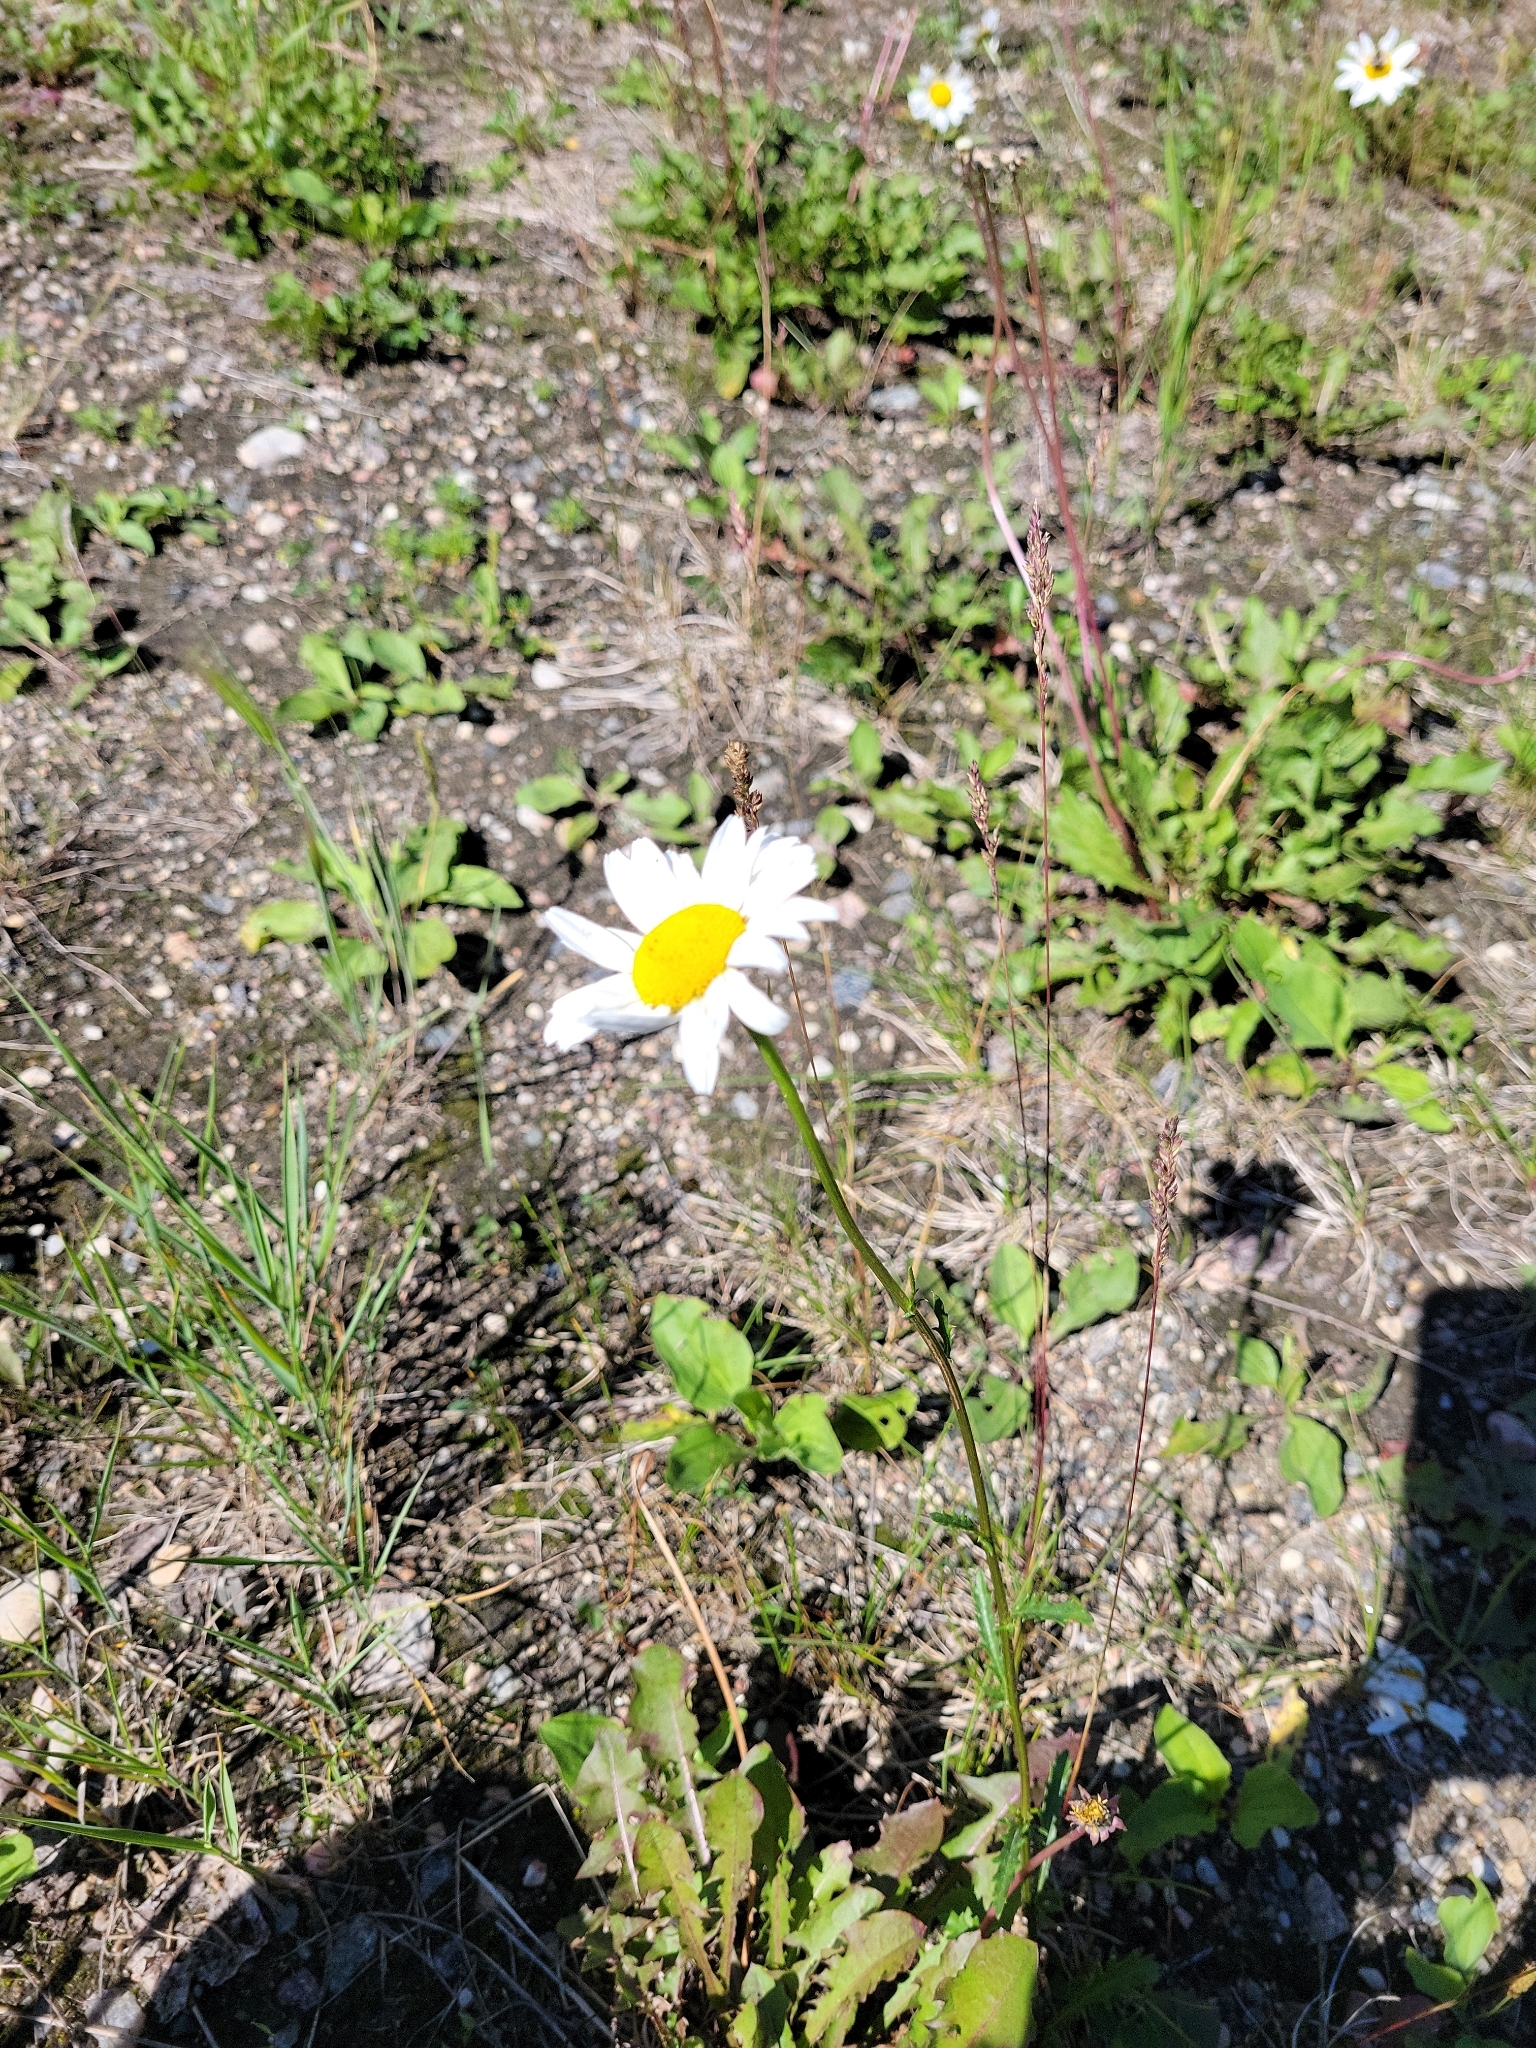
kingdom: Plantae
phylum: Tracheophyta
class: Magnoliopsida
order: Asterales
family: Asteraceae
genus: Leucanthemum
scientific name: Leucanthemum vulgare
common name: Oxeye daisy
